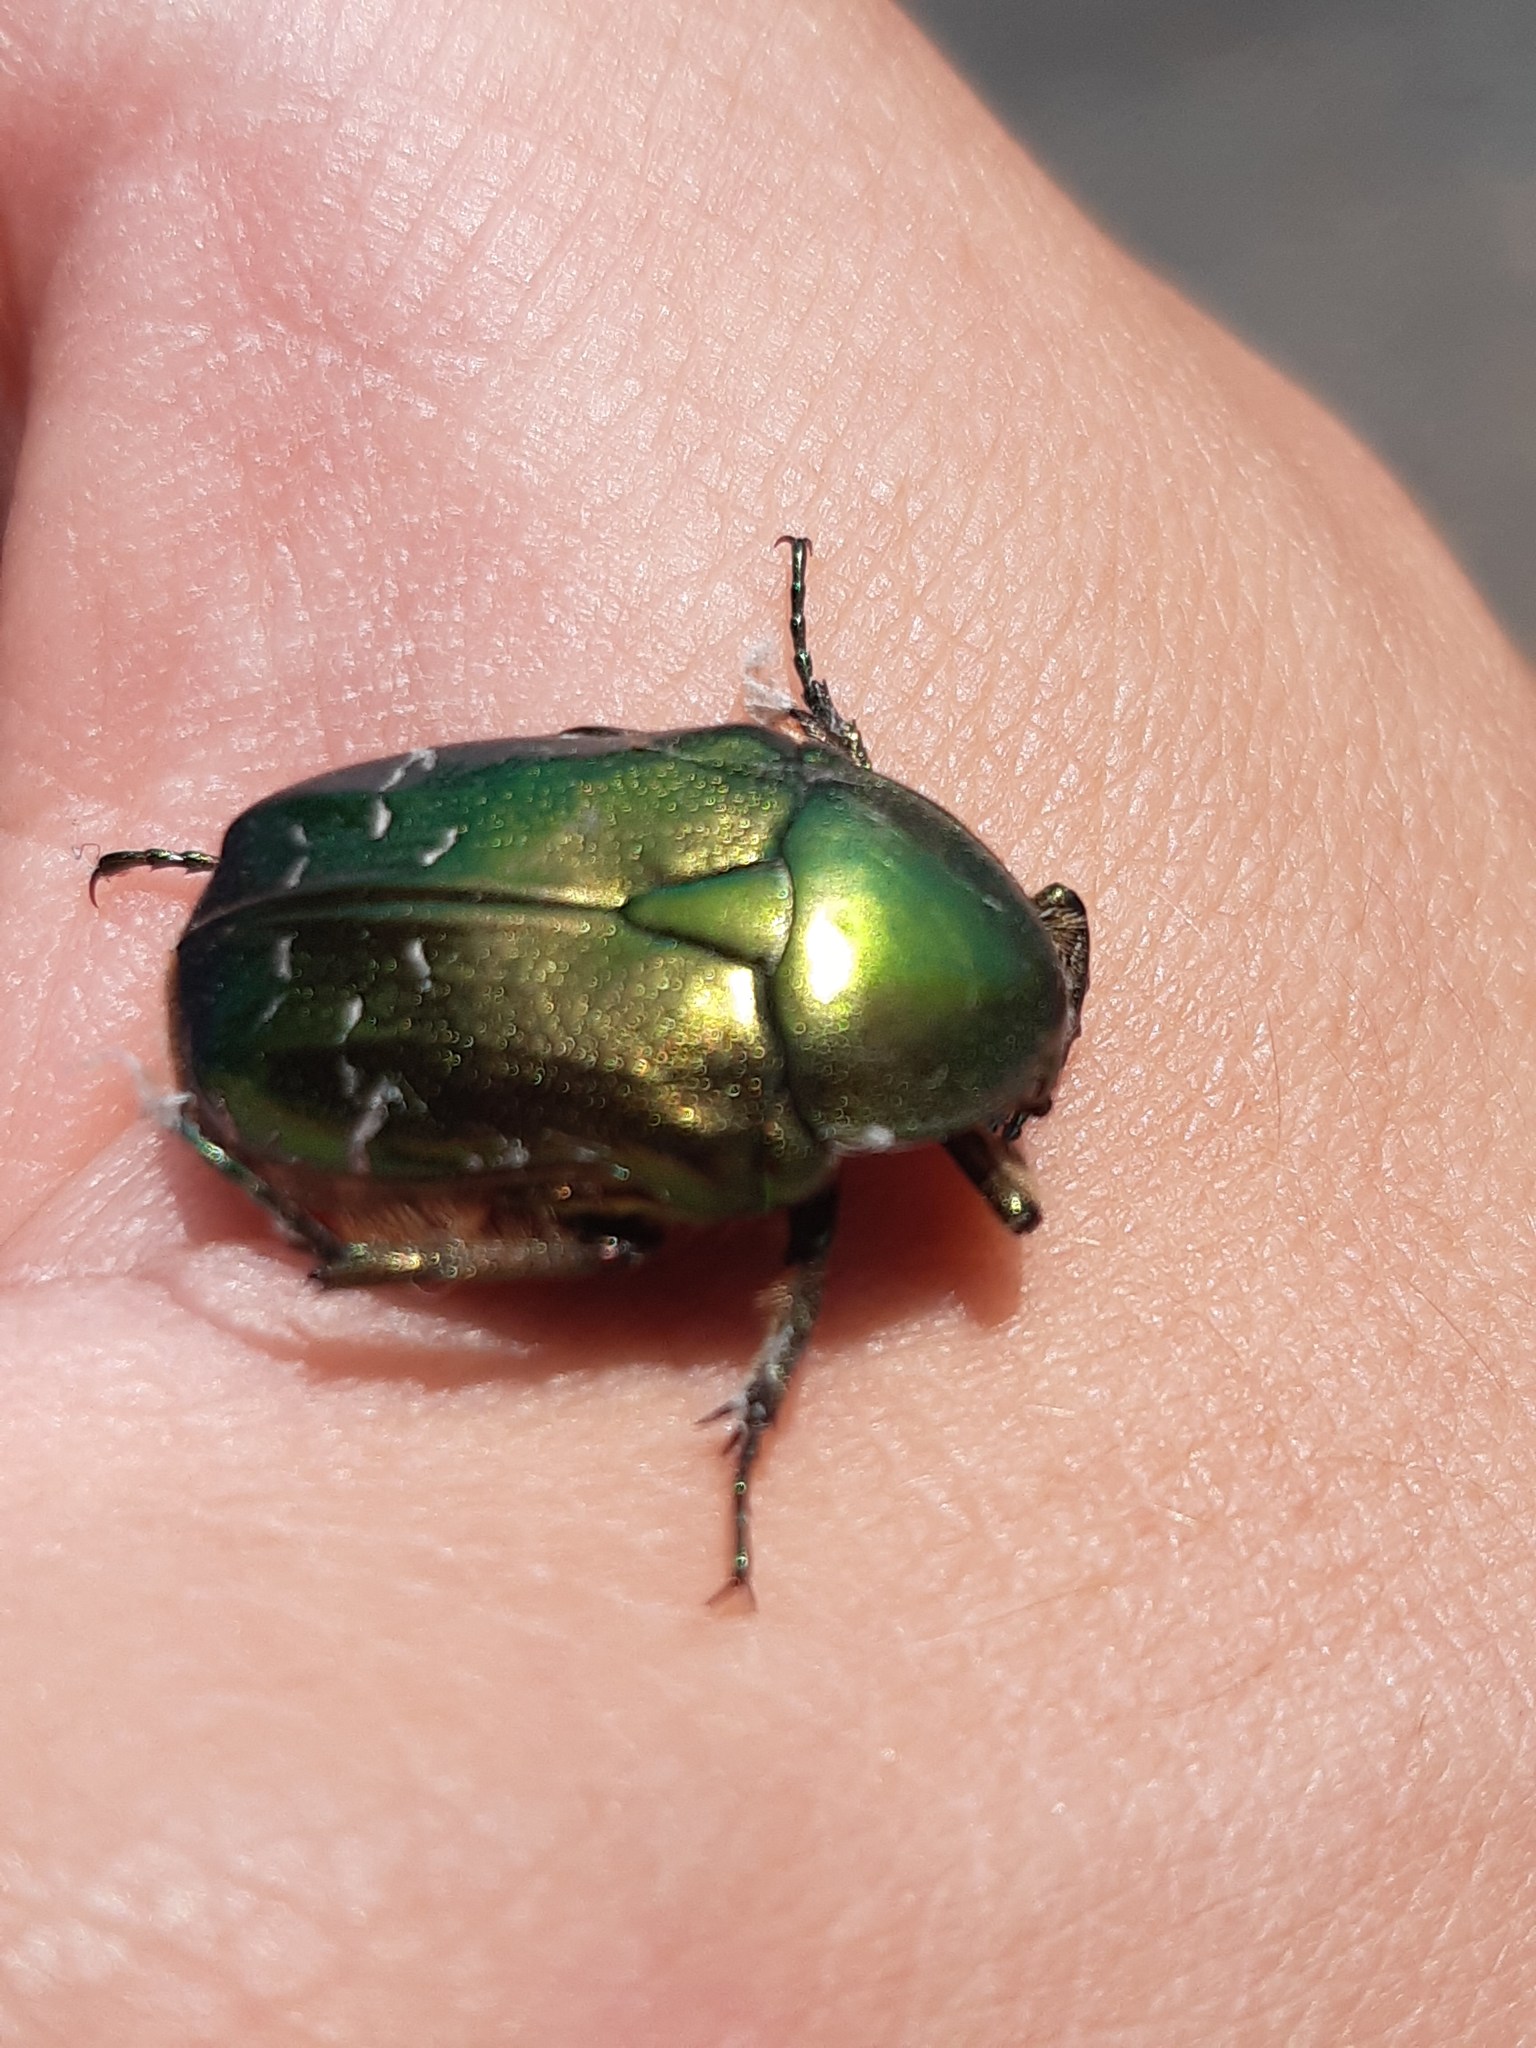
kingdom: Animalia
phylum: Arthropoda
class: Insecta
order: Coleoptera
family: Scarabaeidae
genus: Cetonia
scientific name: Cetonia aurata
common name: Rose chafer
